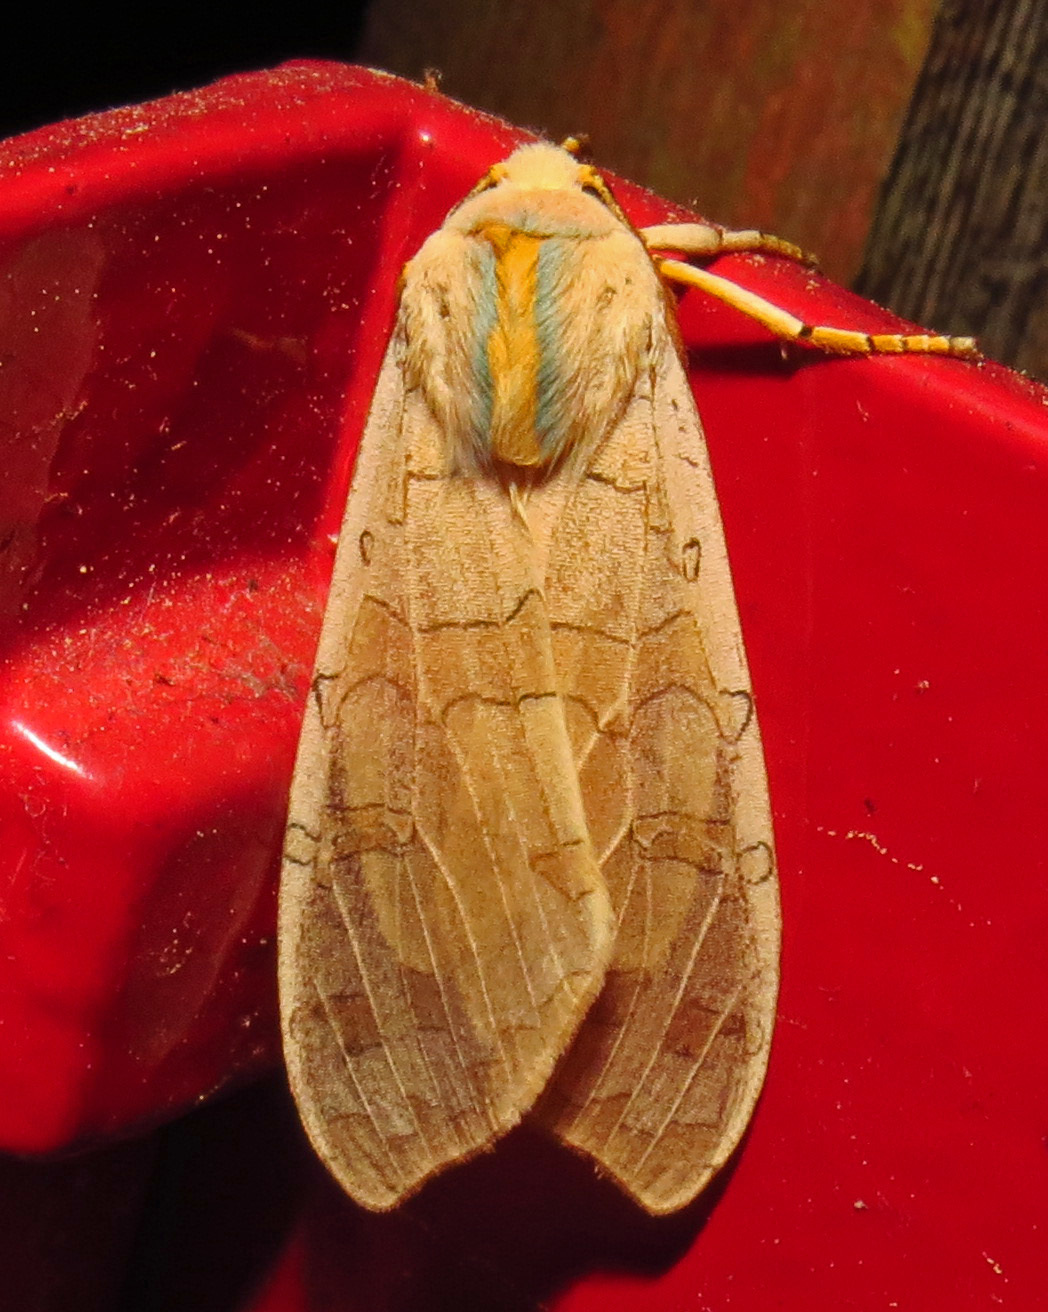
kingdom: Animalia
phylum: Arthropoda
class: Insecta
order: Lepidoptera
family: Erebidae
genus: Halysidota
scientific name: Halysidota
